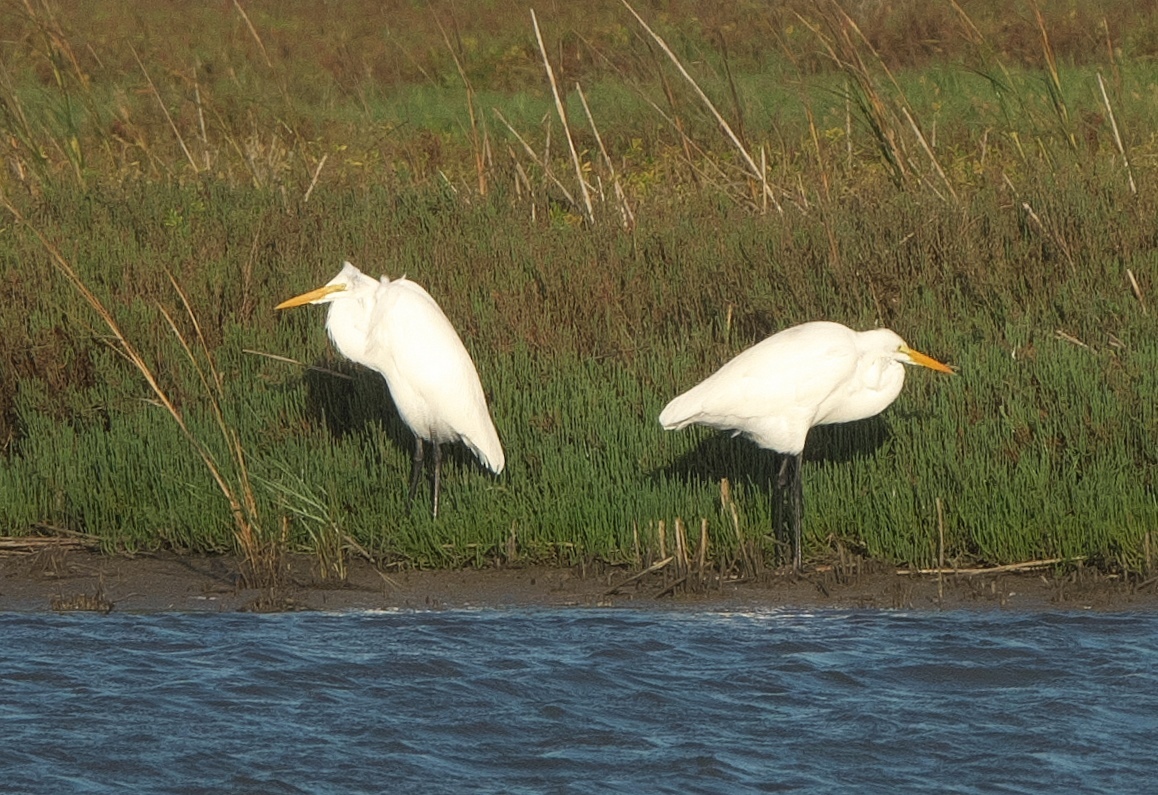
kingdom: Animalia
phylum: Chordata
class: Aves
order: Pelecaniformes
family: Ardeidae
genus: Ardea
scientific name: Ardea alba
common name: Great egret
